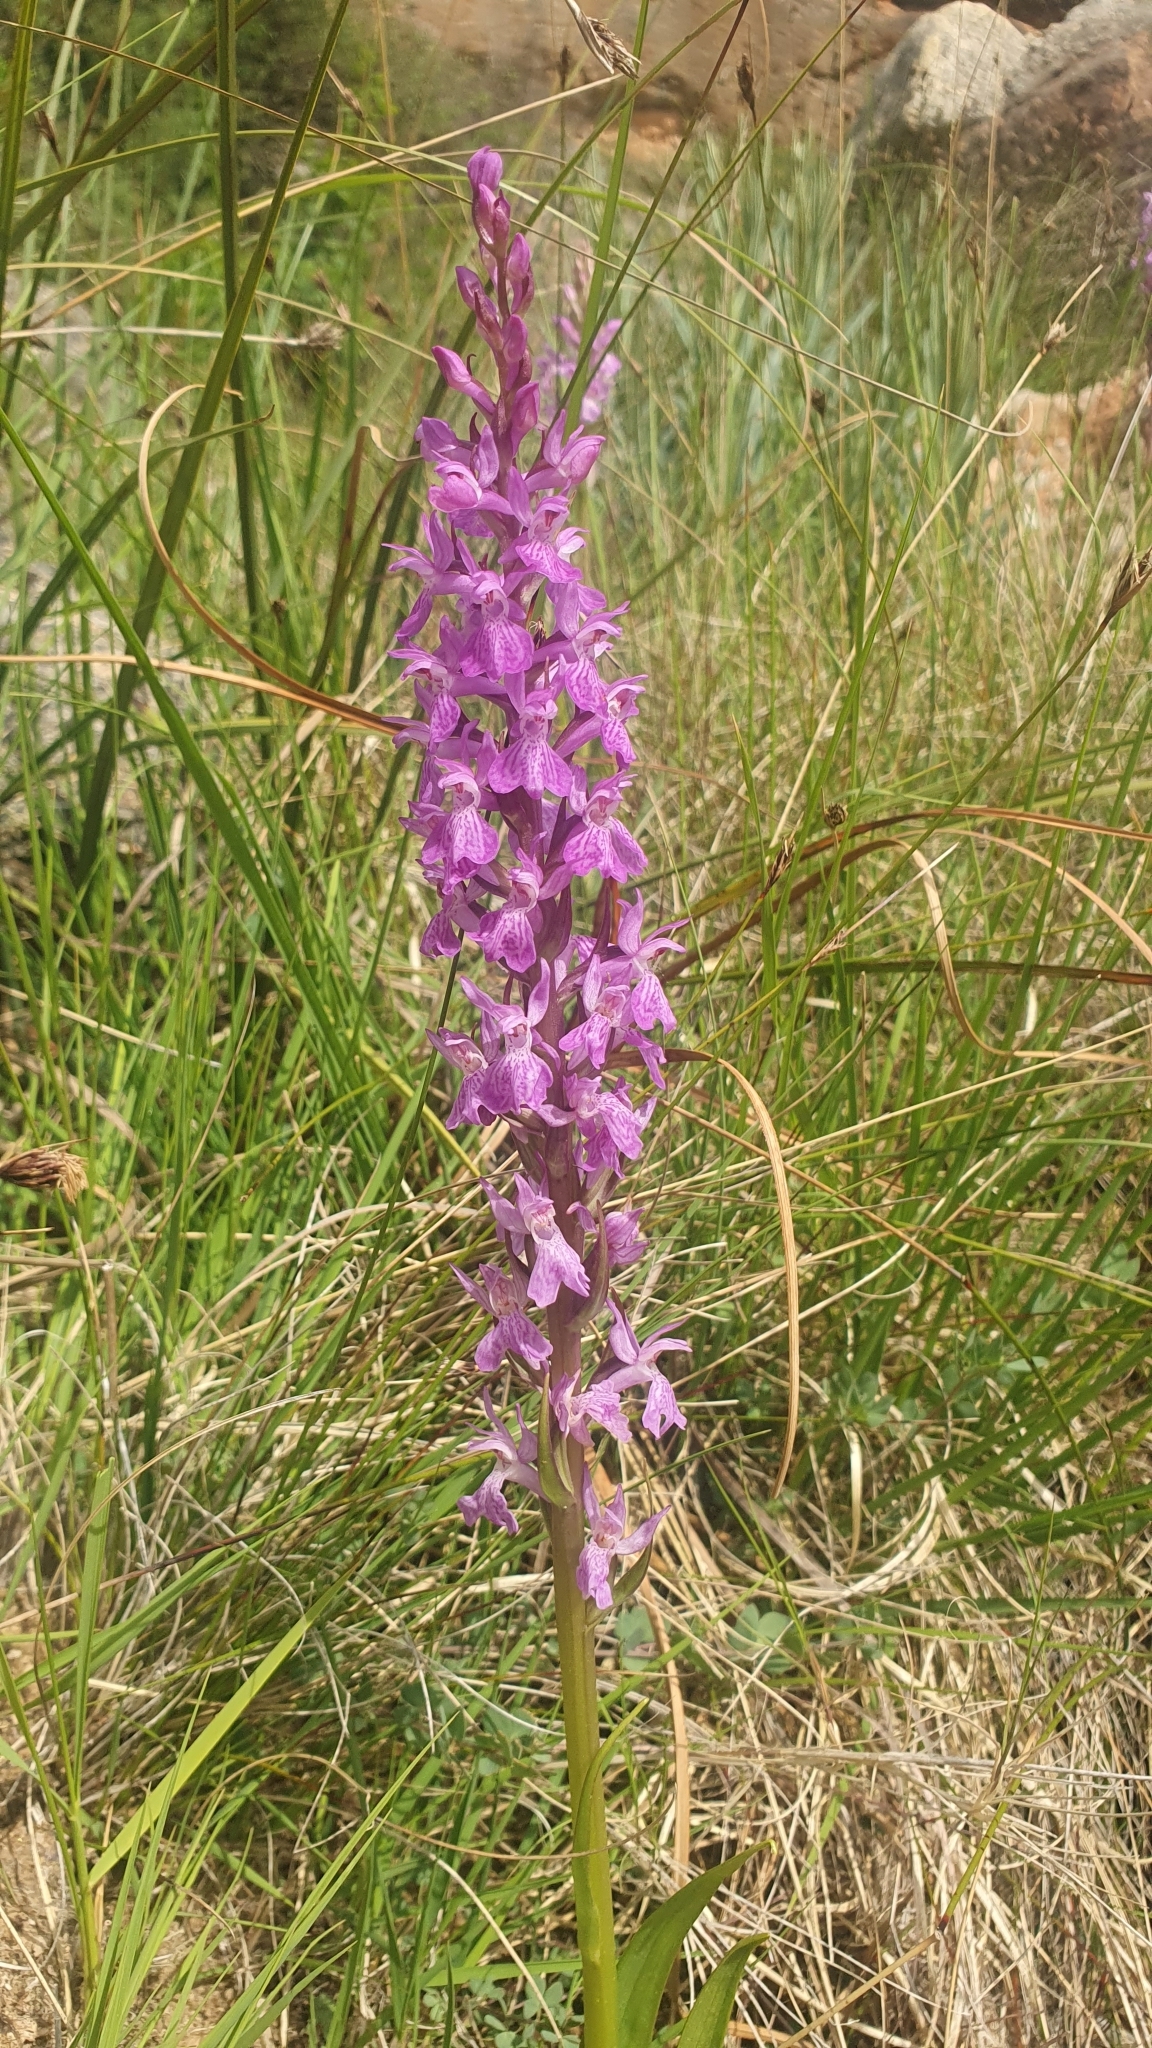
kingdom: Plantae
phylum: Tracheophyta
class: Liliopsida
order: Asparagales
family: Orchidaceae
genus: Dactylorhiza
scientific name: Dactylorhiza elata
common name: Stately dactylorhiza
